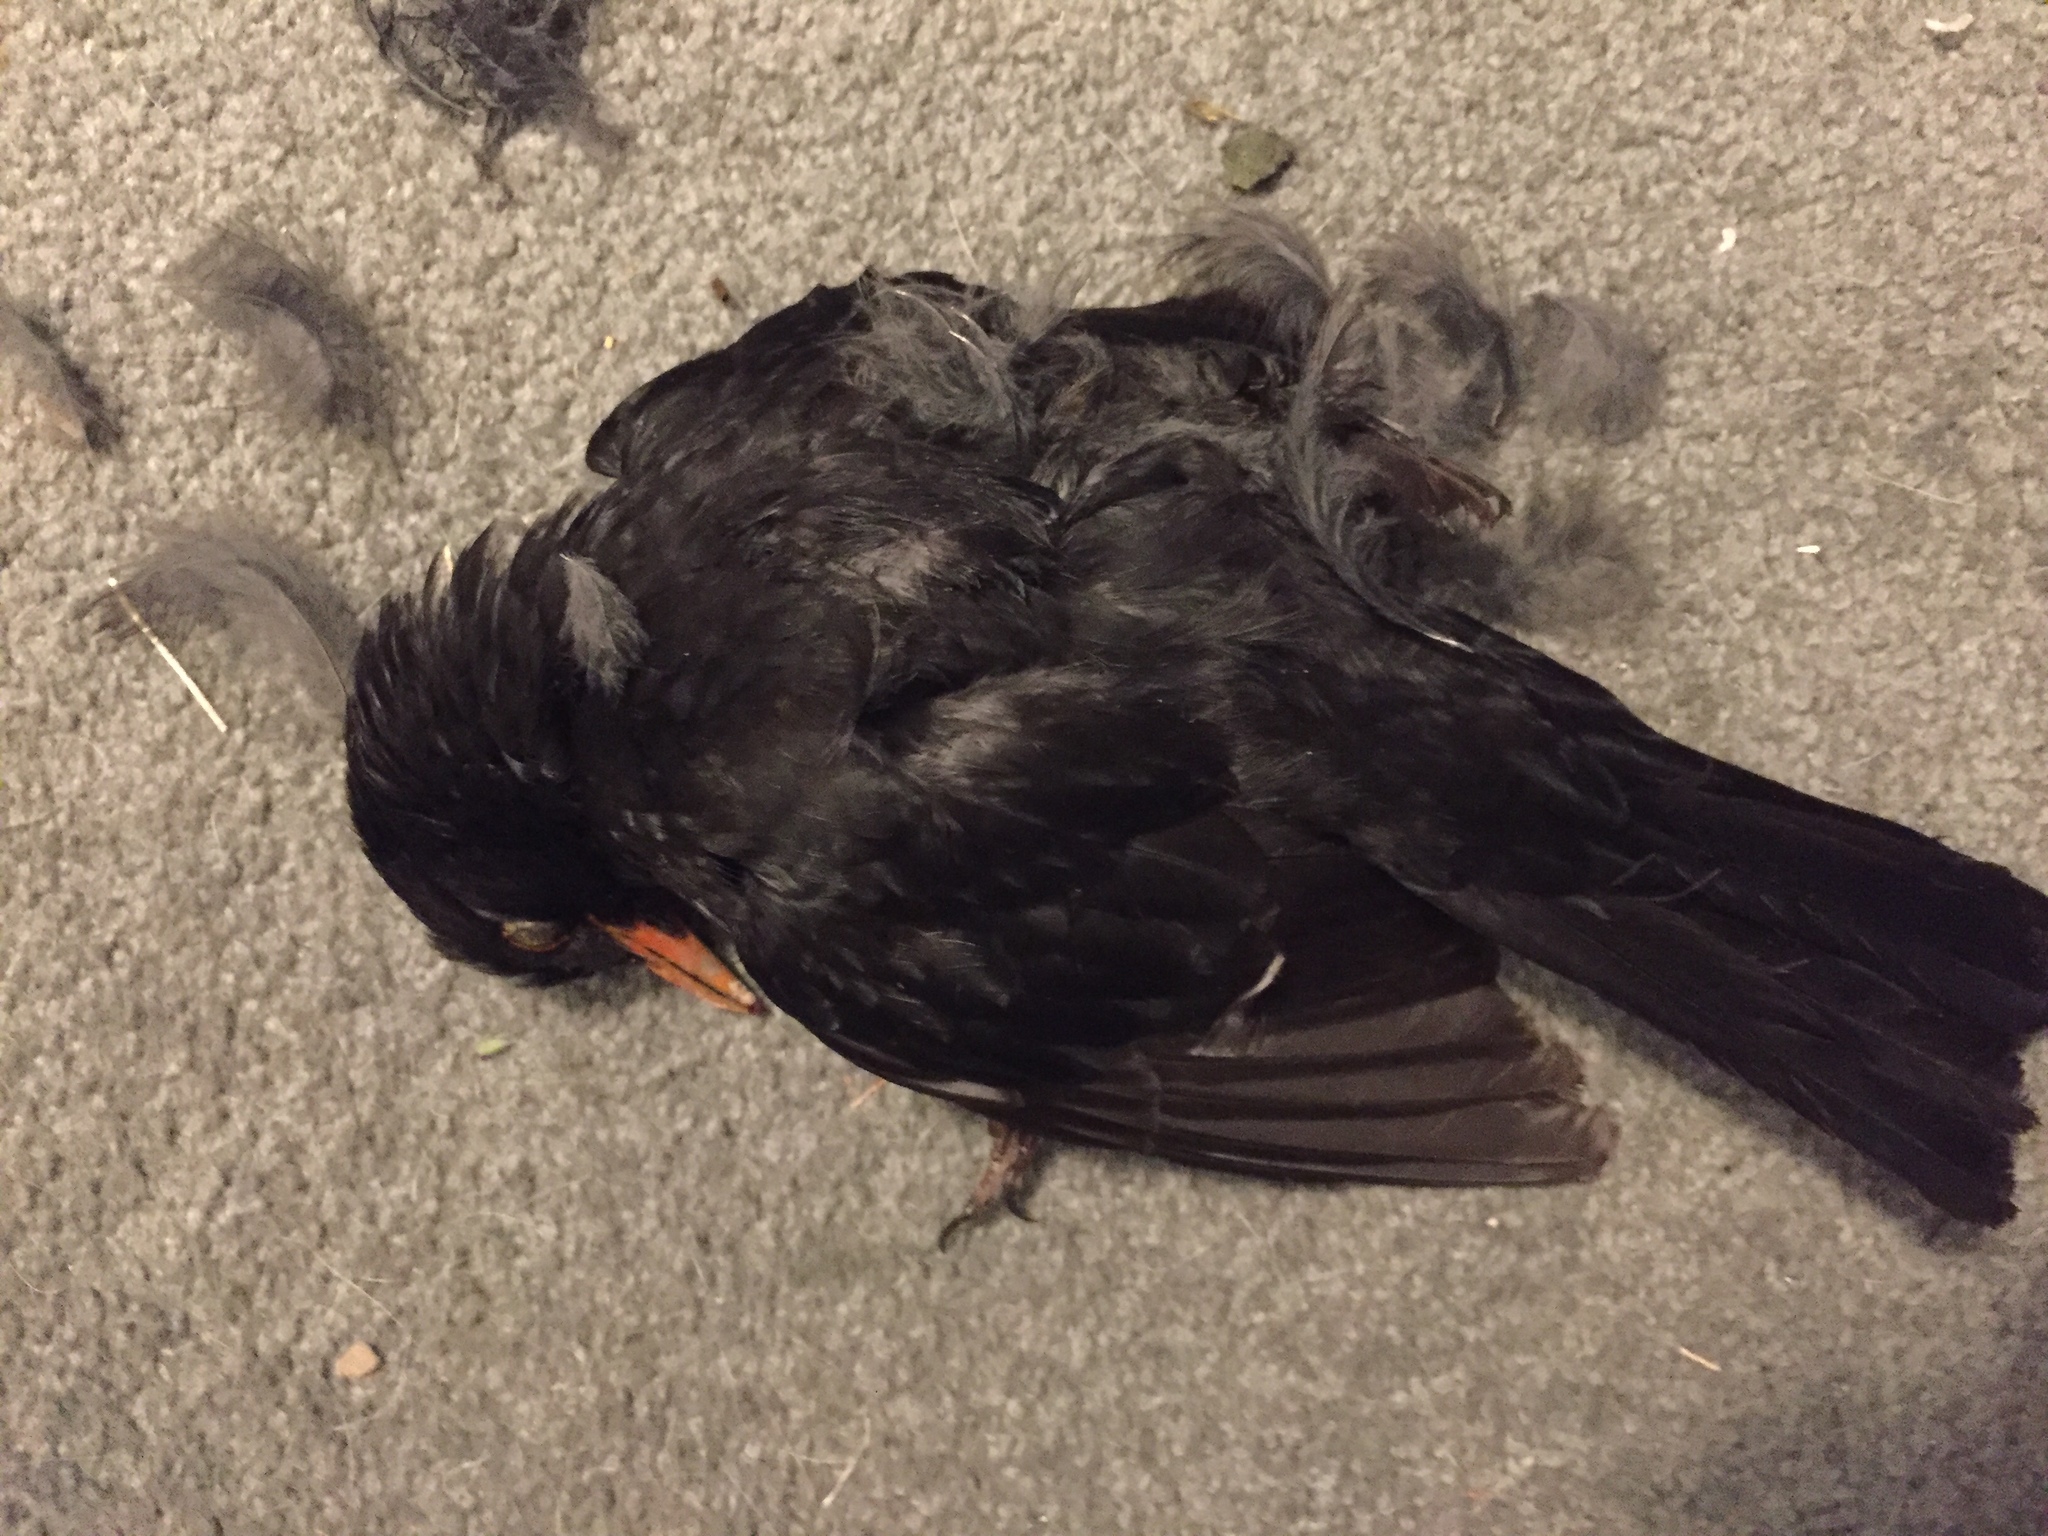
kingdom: Animalia
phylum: Chordata
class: Aves
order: Passeriformes
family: Turdidae
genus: Turdus
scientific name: Turdus merula
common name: Common blackbird
